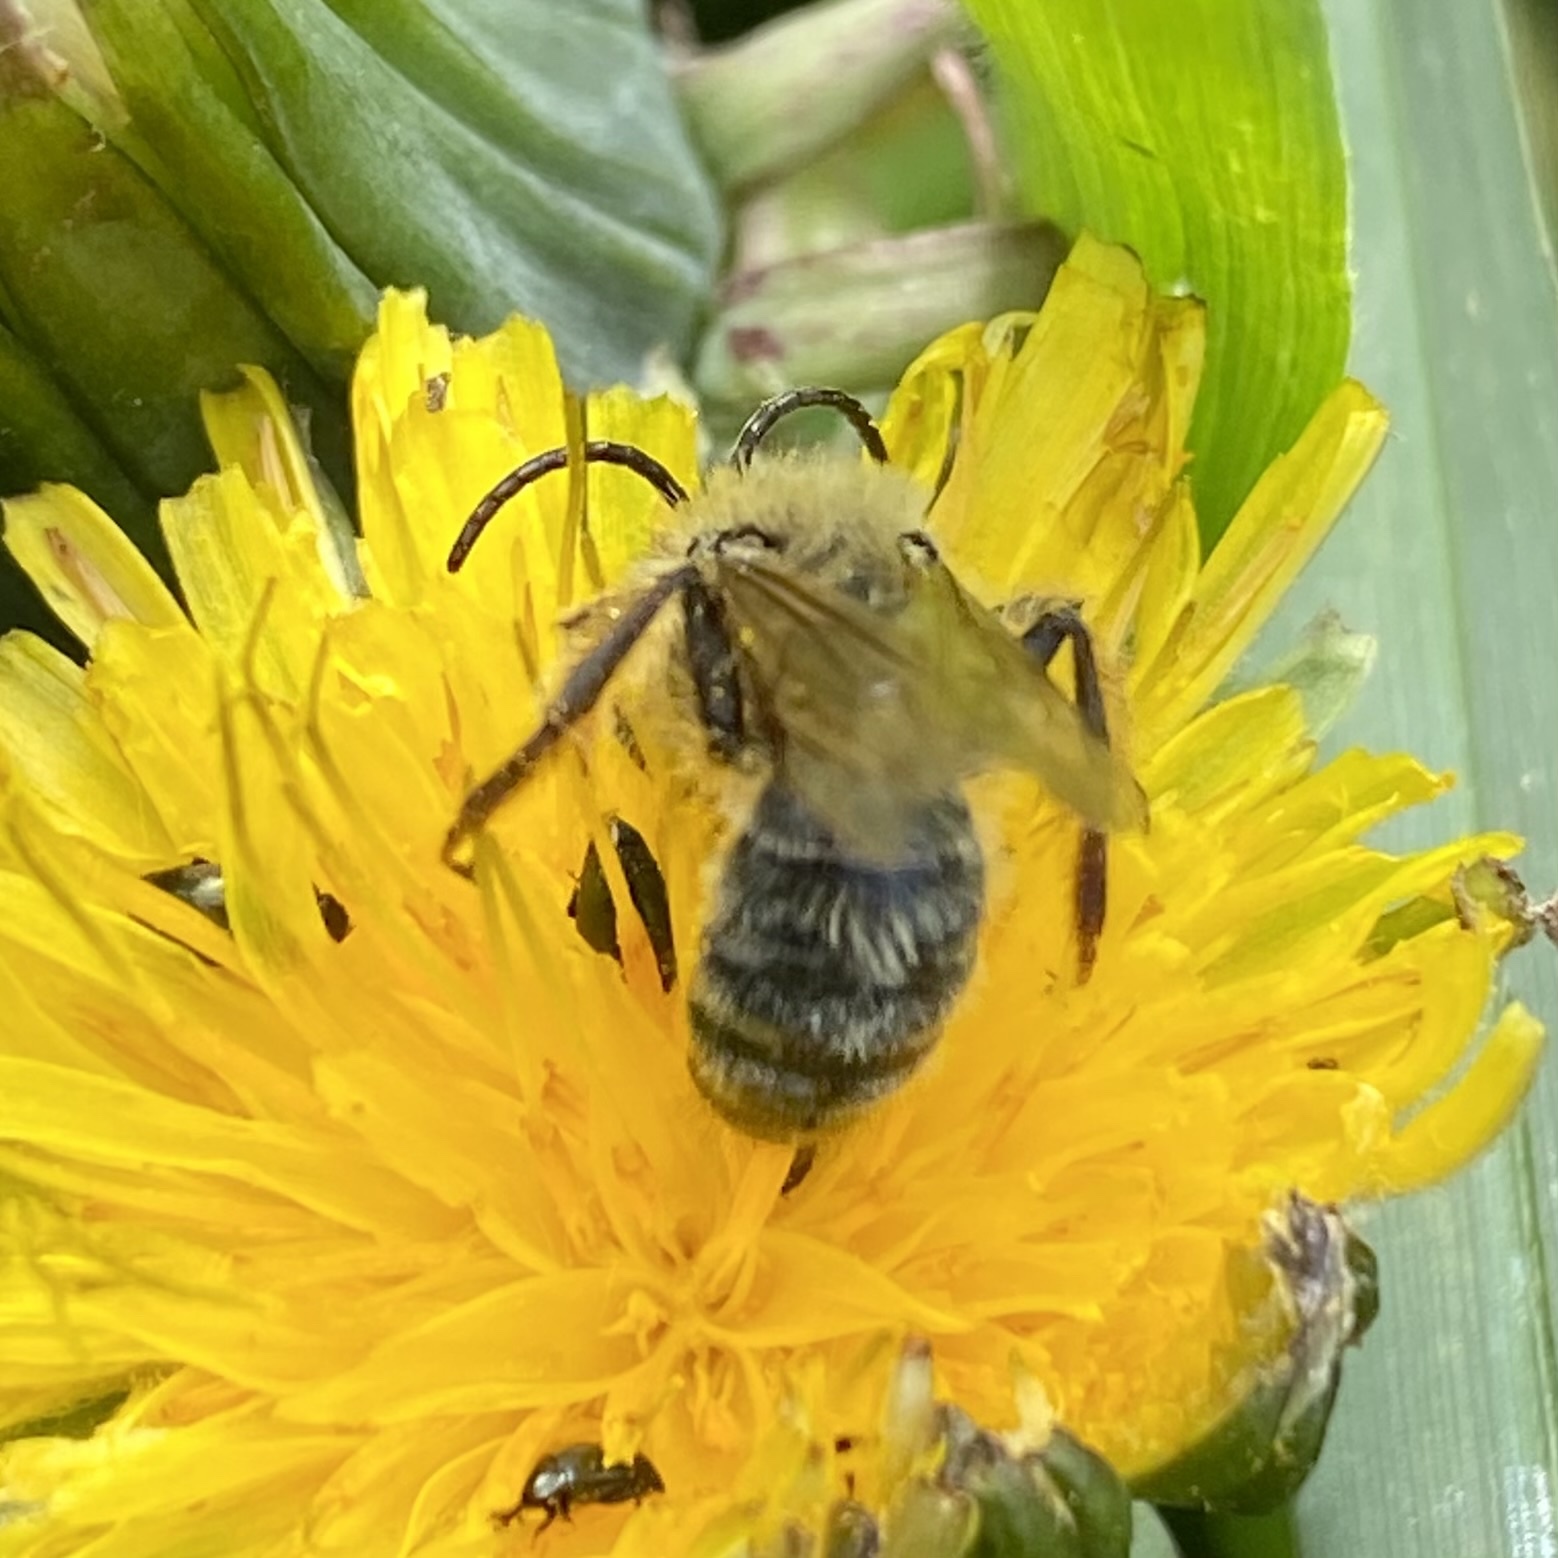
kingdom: Animalia
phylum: Arthropoda
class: Insecta
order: Hymenoptera
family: Andrenidae
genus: Andrena
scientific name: Andrena
